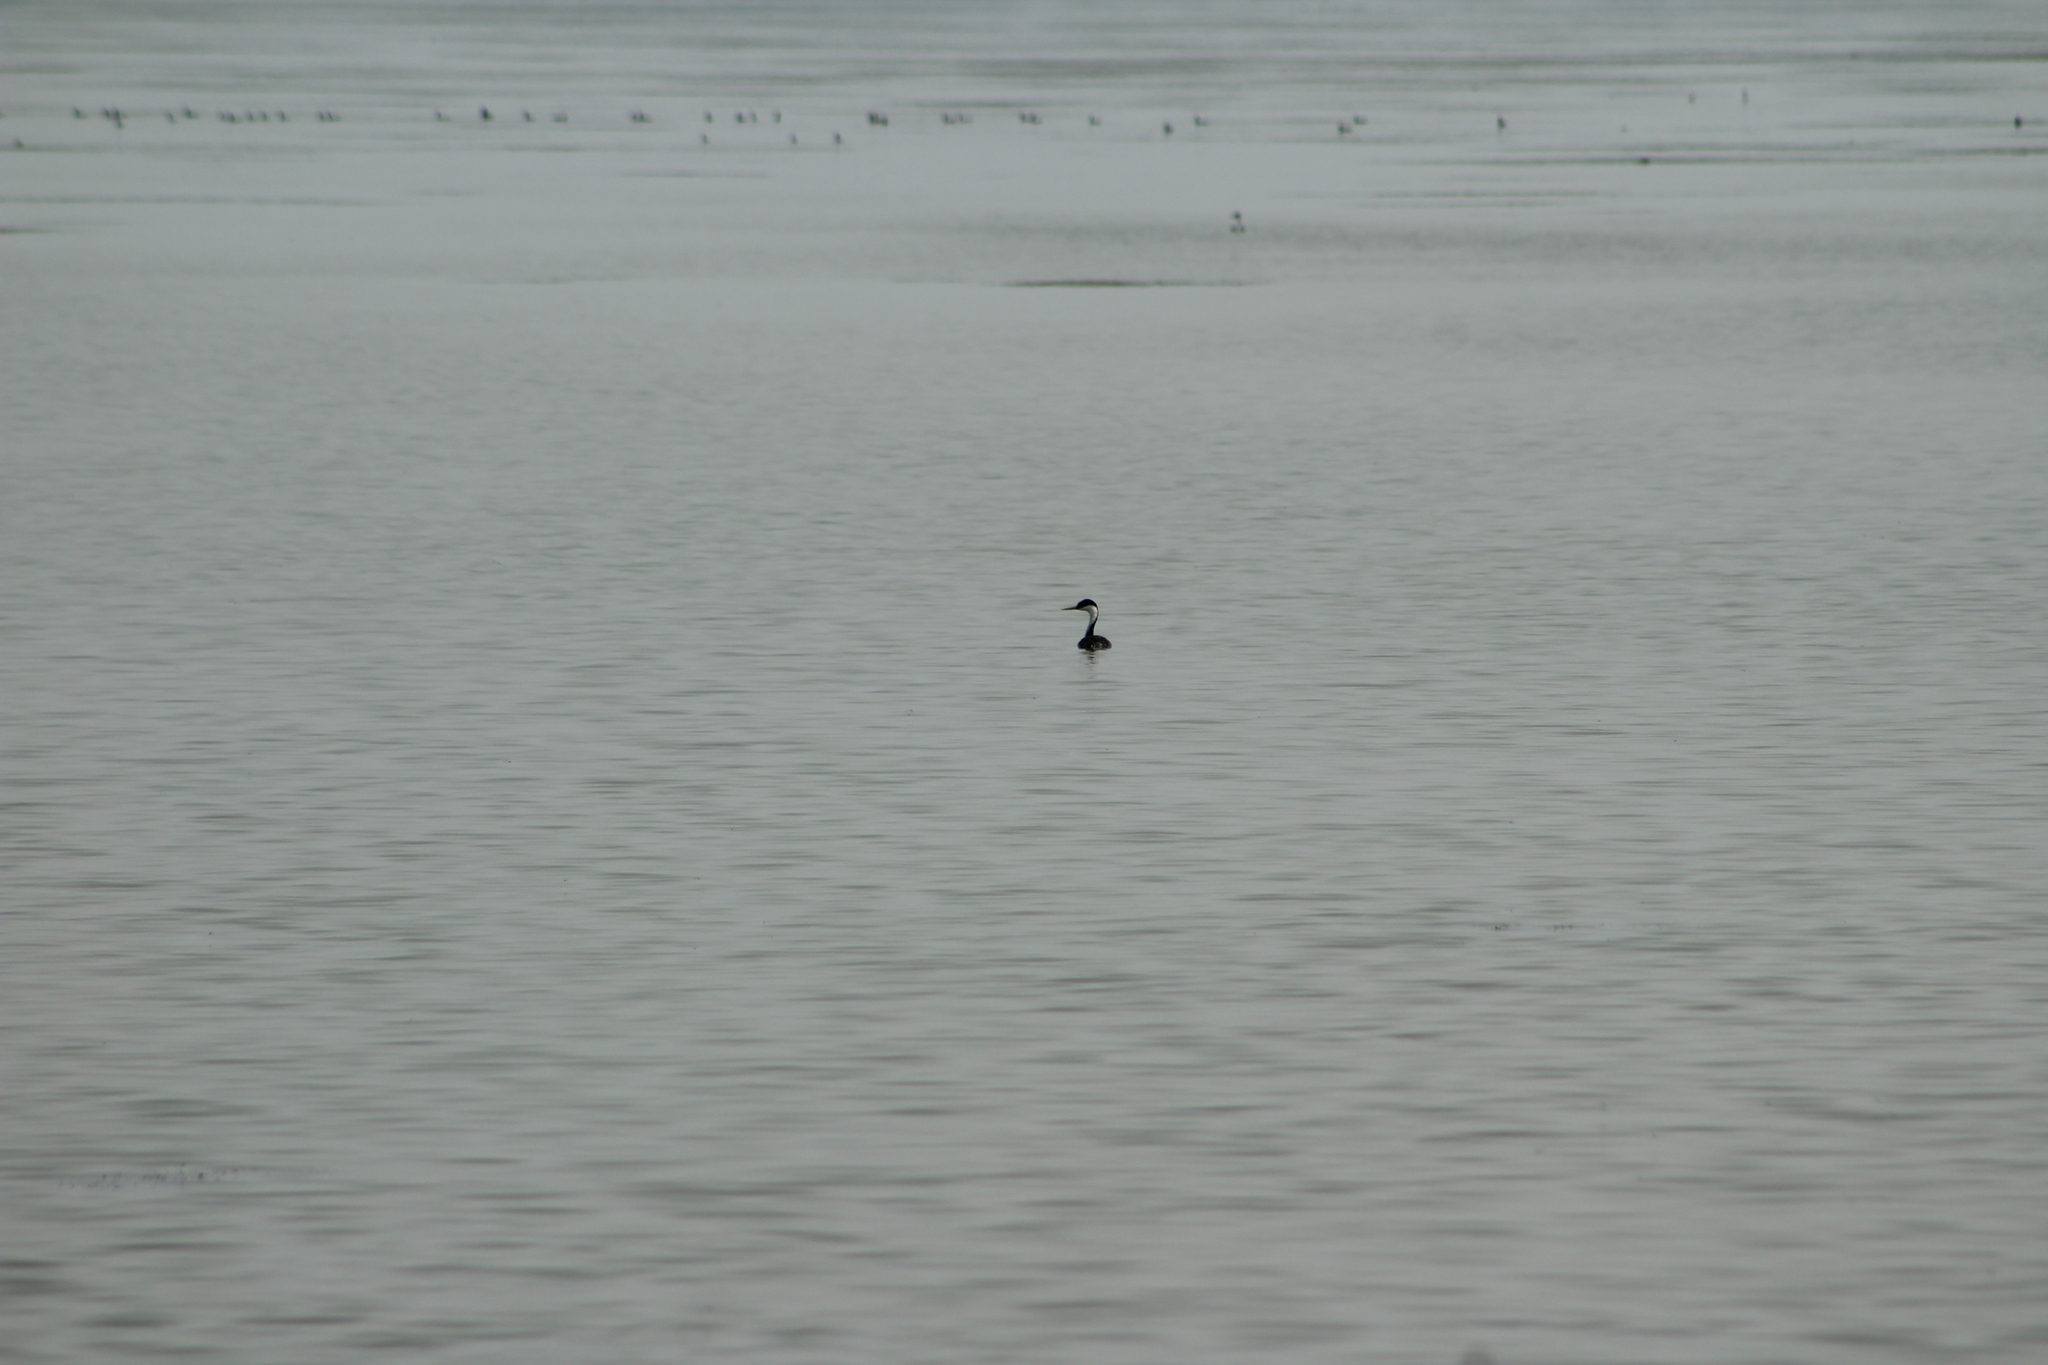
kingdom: Animalia
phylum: Chordata
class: Aves
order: Podicipediformes
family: Podicipedidae
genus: Aechmophorus
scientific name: Aechmophorus occidentalis
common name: Western grebe
